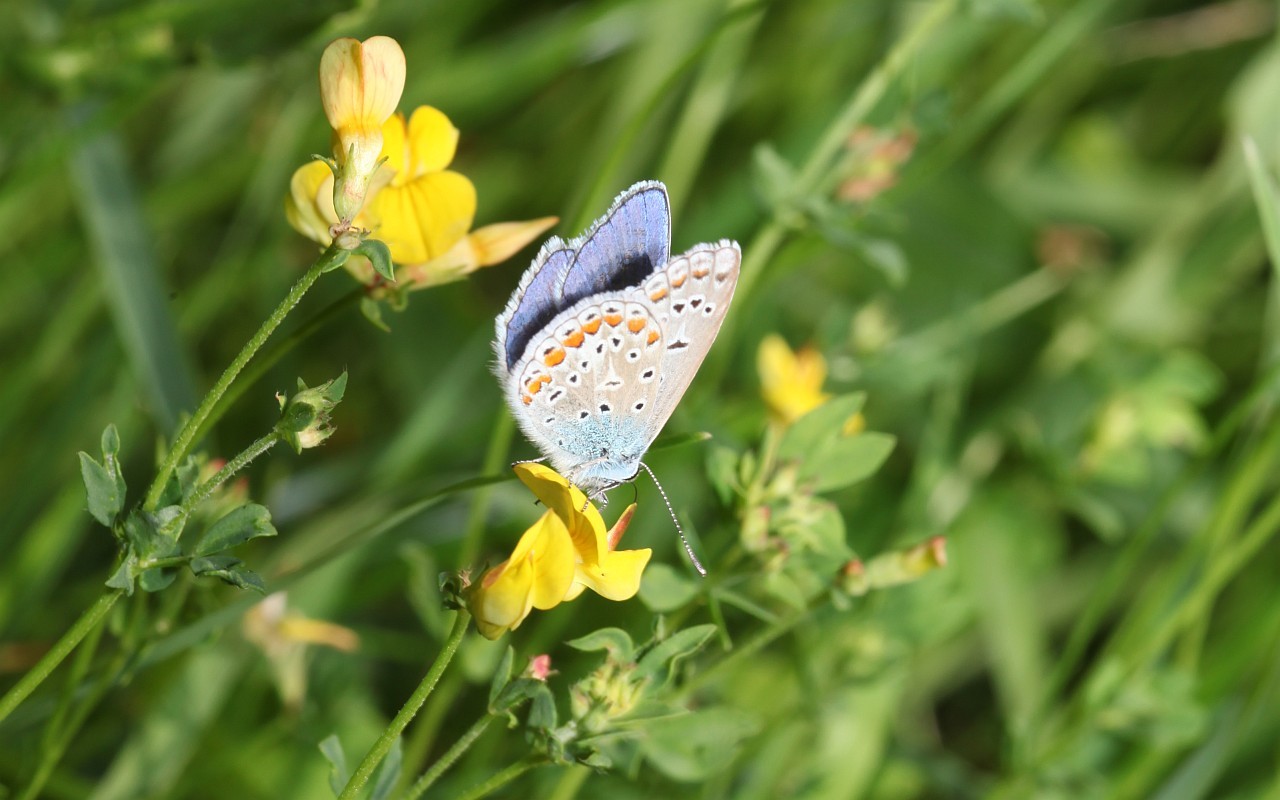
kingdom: Animalia
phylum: Arthropoda
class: Insecta
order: Lepidoptera
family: Lycaenidae
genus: Polyommatus
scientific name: Polyommatus icarus
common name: Common blue
